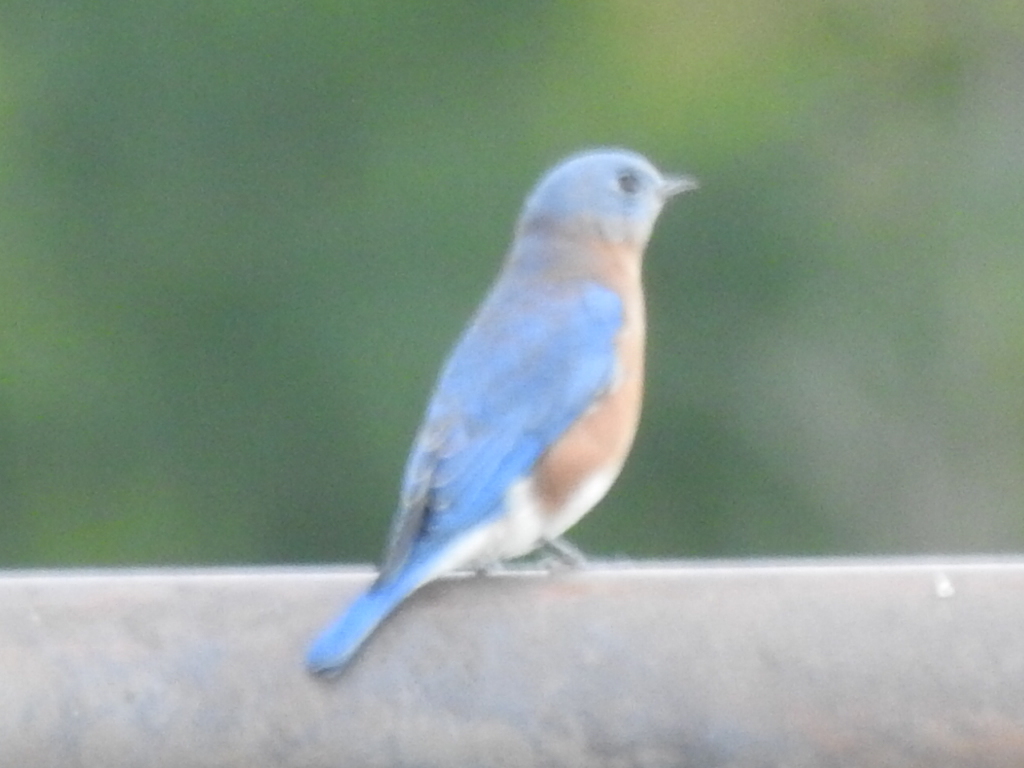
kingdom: Animalia
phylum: Chordata
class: Aves
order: Passeriformes
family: Turdidae
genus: Sialia
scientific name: Sialia sialis
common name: Eastern bluebird
